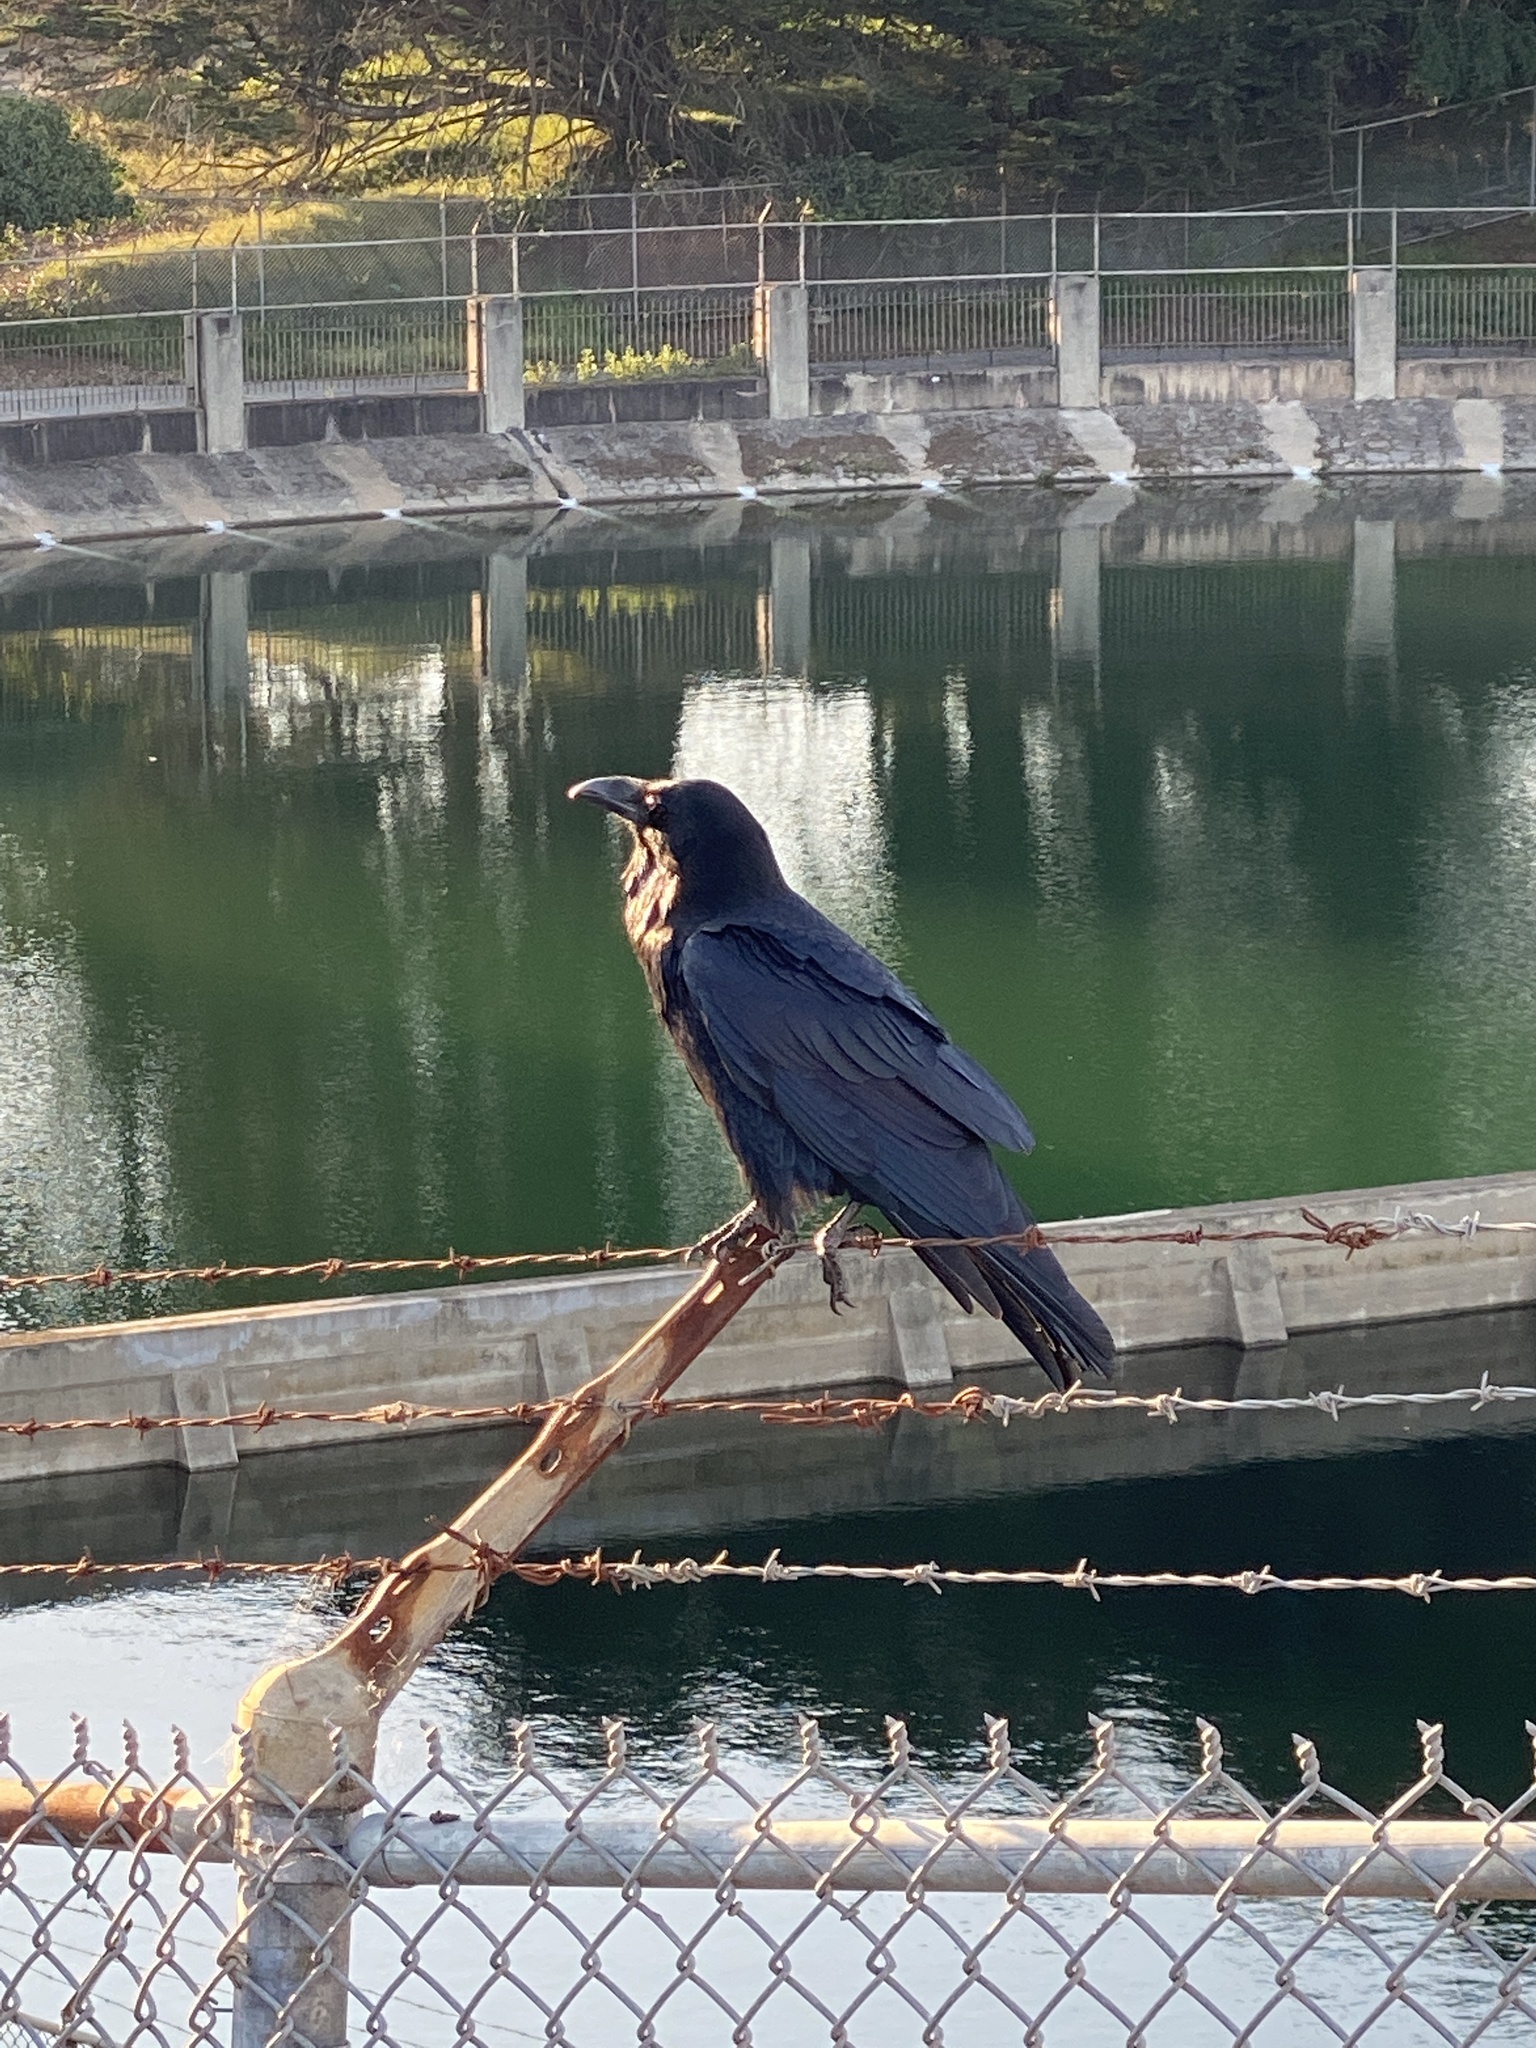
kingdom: Animalia
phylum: Chordata
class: Aves
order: Passeriformes
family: Corvidae
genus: Corvus
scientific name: Corvus corax
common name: Common raven
